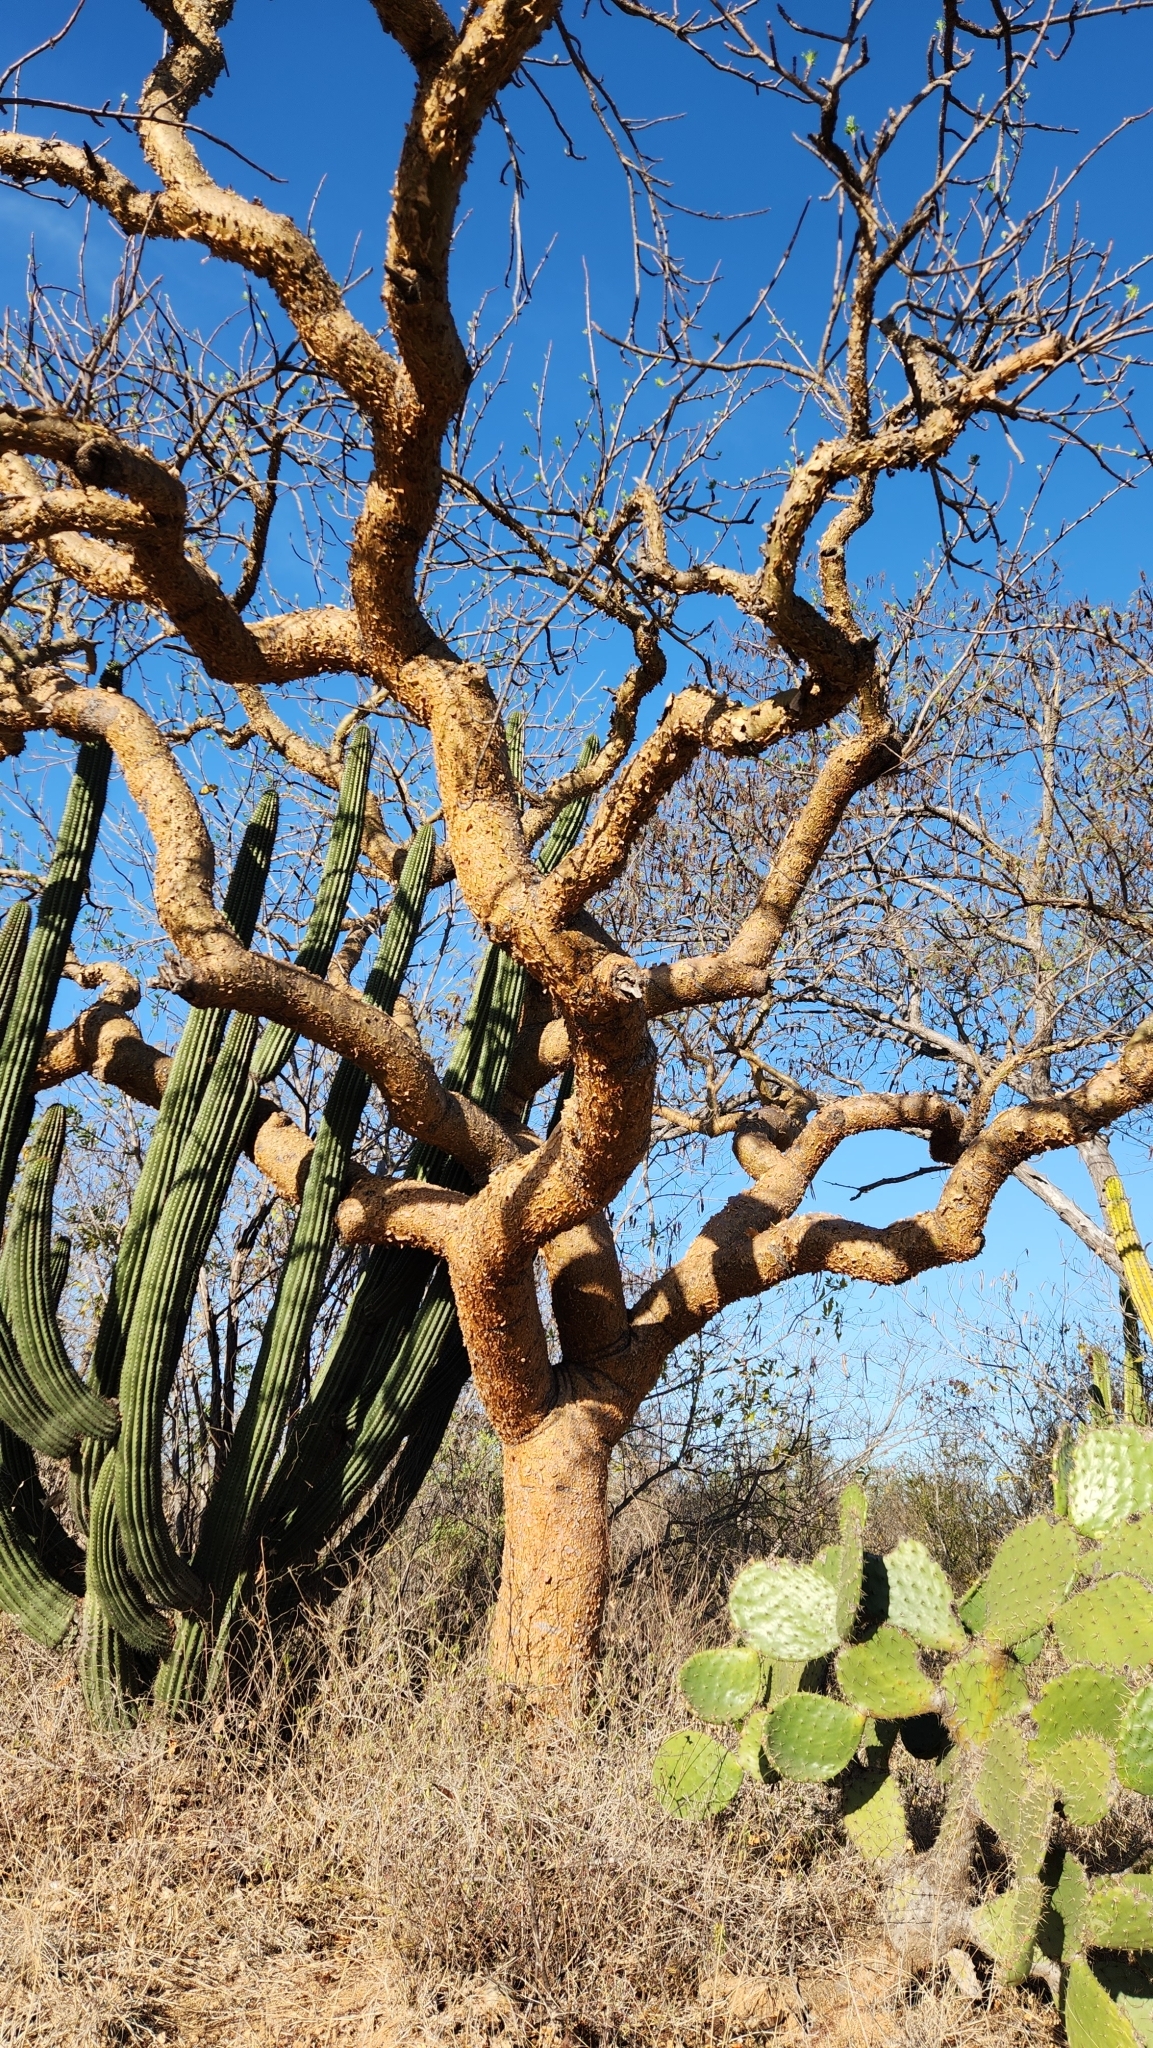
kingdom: Plantae
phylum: Tracheophyta
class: Magnoliopsida
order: Sapindales
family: Burseraceae
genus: Bursera
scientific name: Bursera microphylla
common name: Elephant tree
